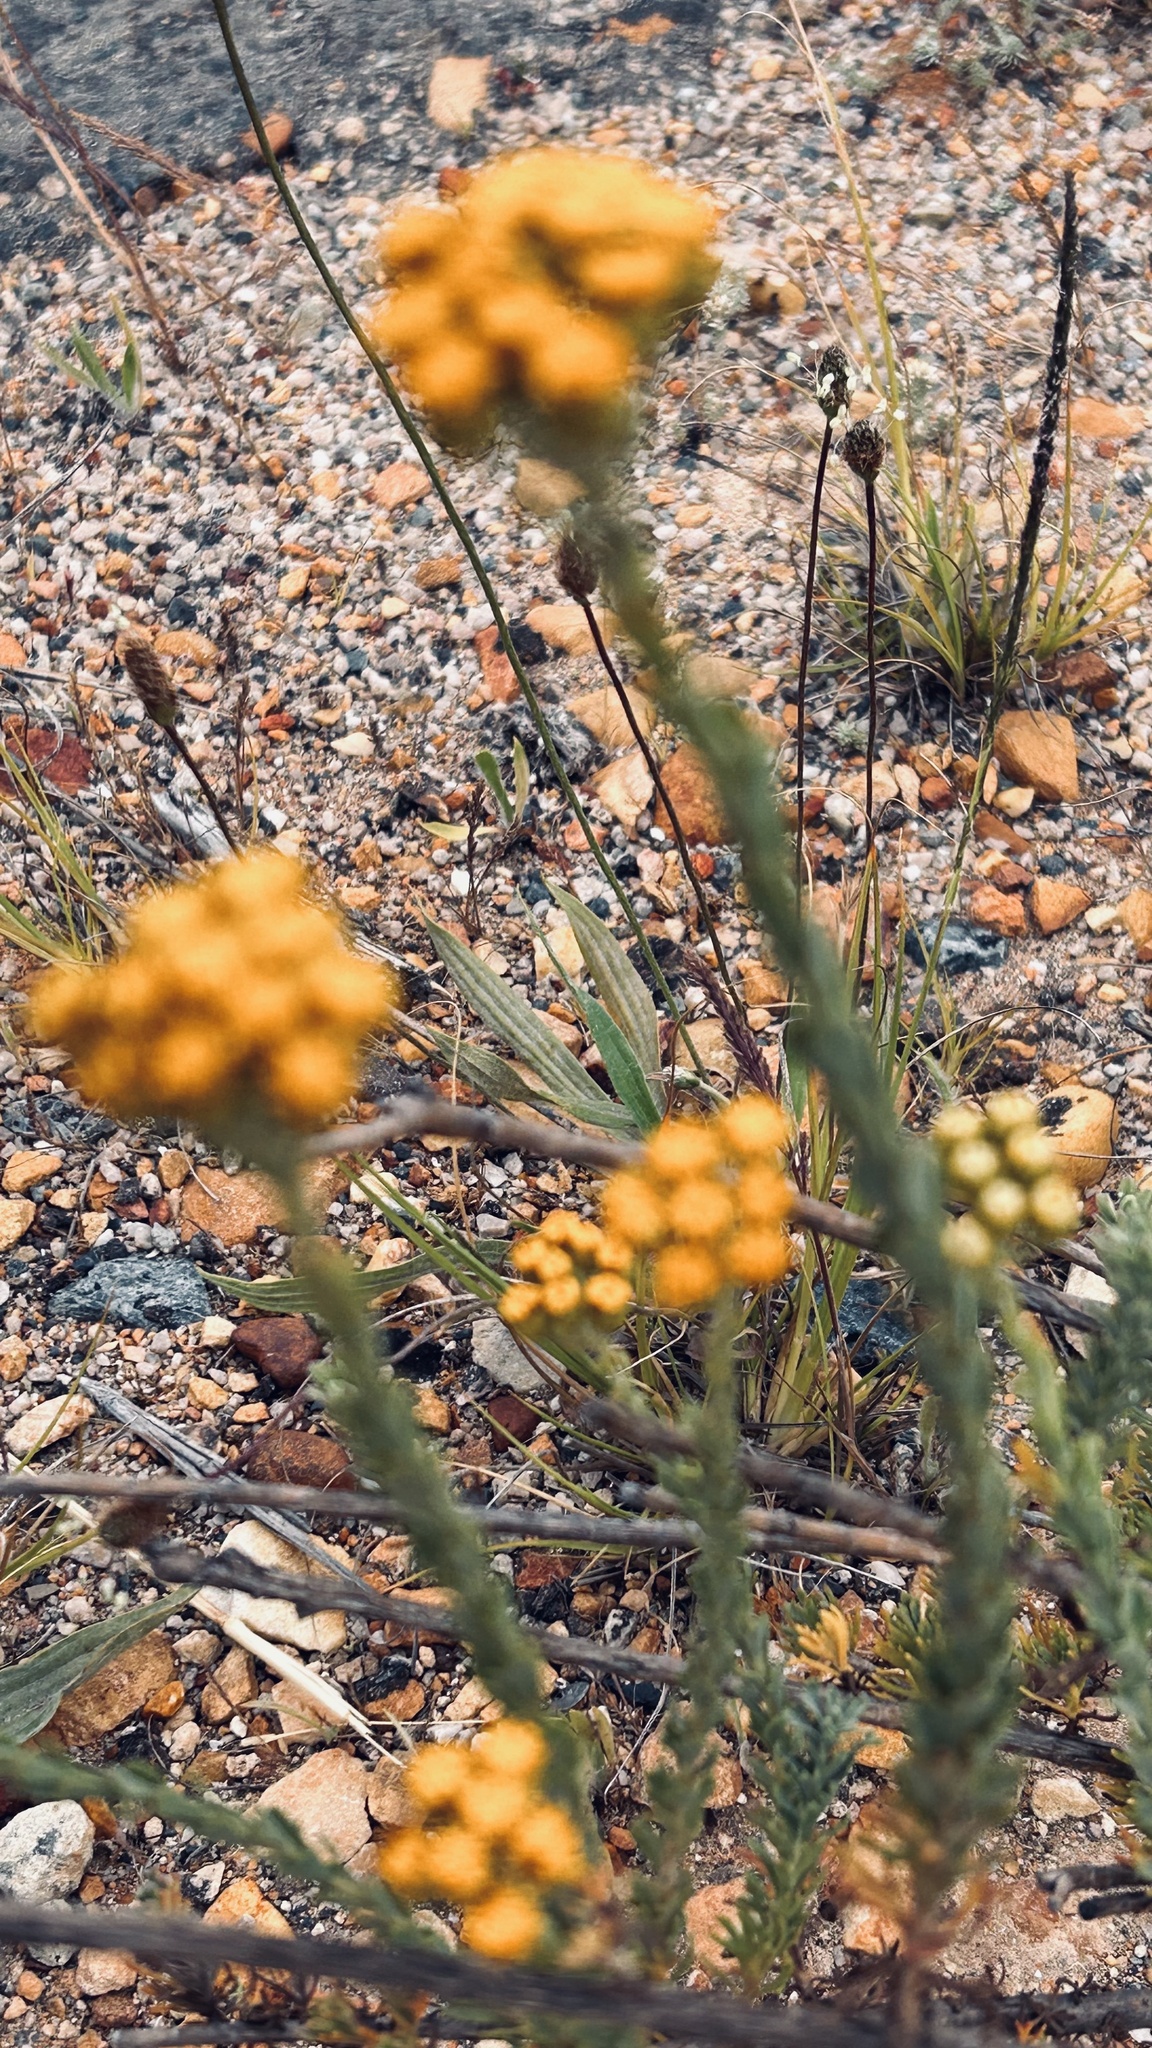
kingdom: Plantae
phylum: Tracheophyta
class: Magnoliopsida
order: Asterales
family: Asteraceae
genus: Athanasia
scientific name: Athanasia trifurcata
